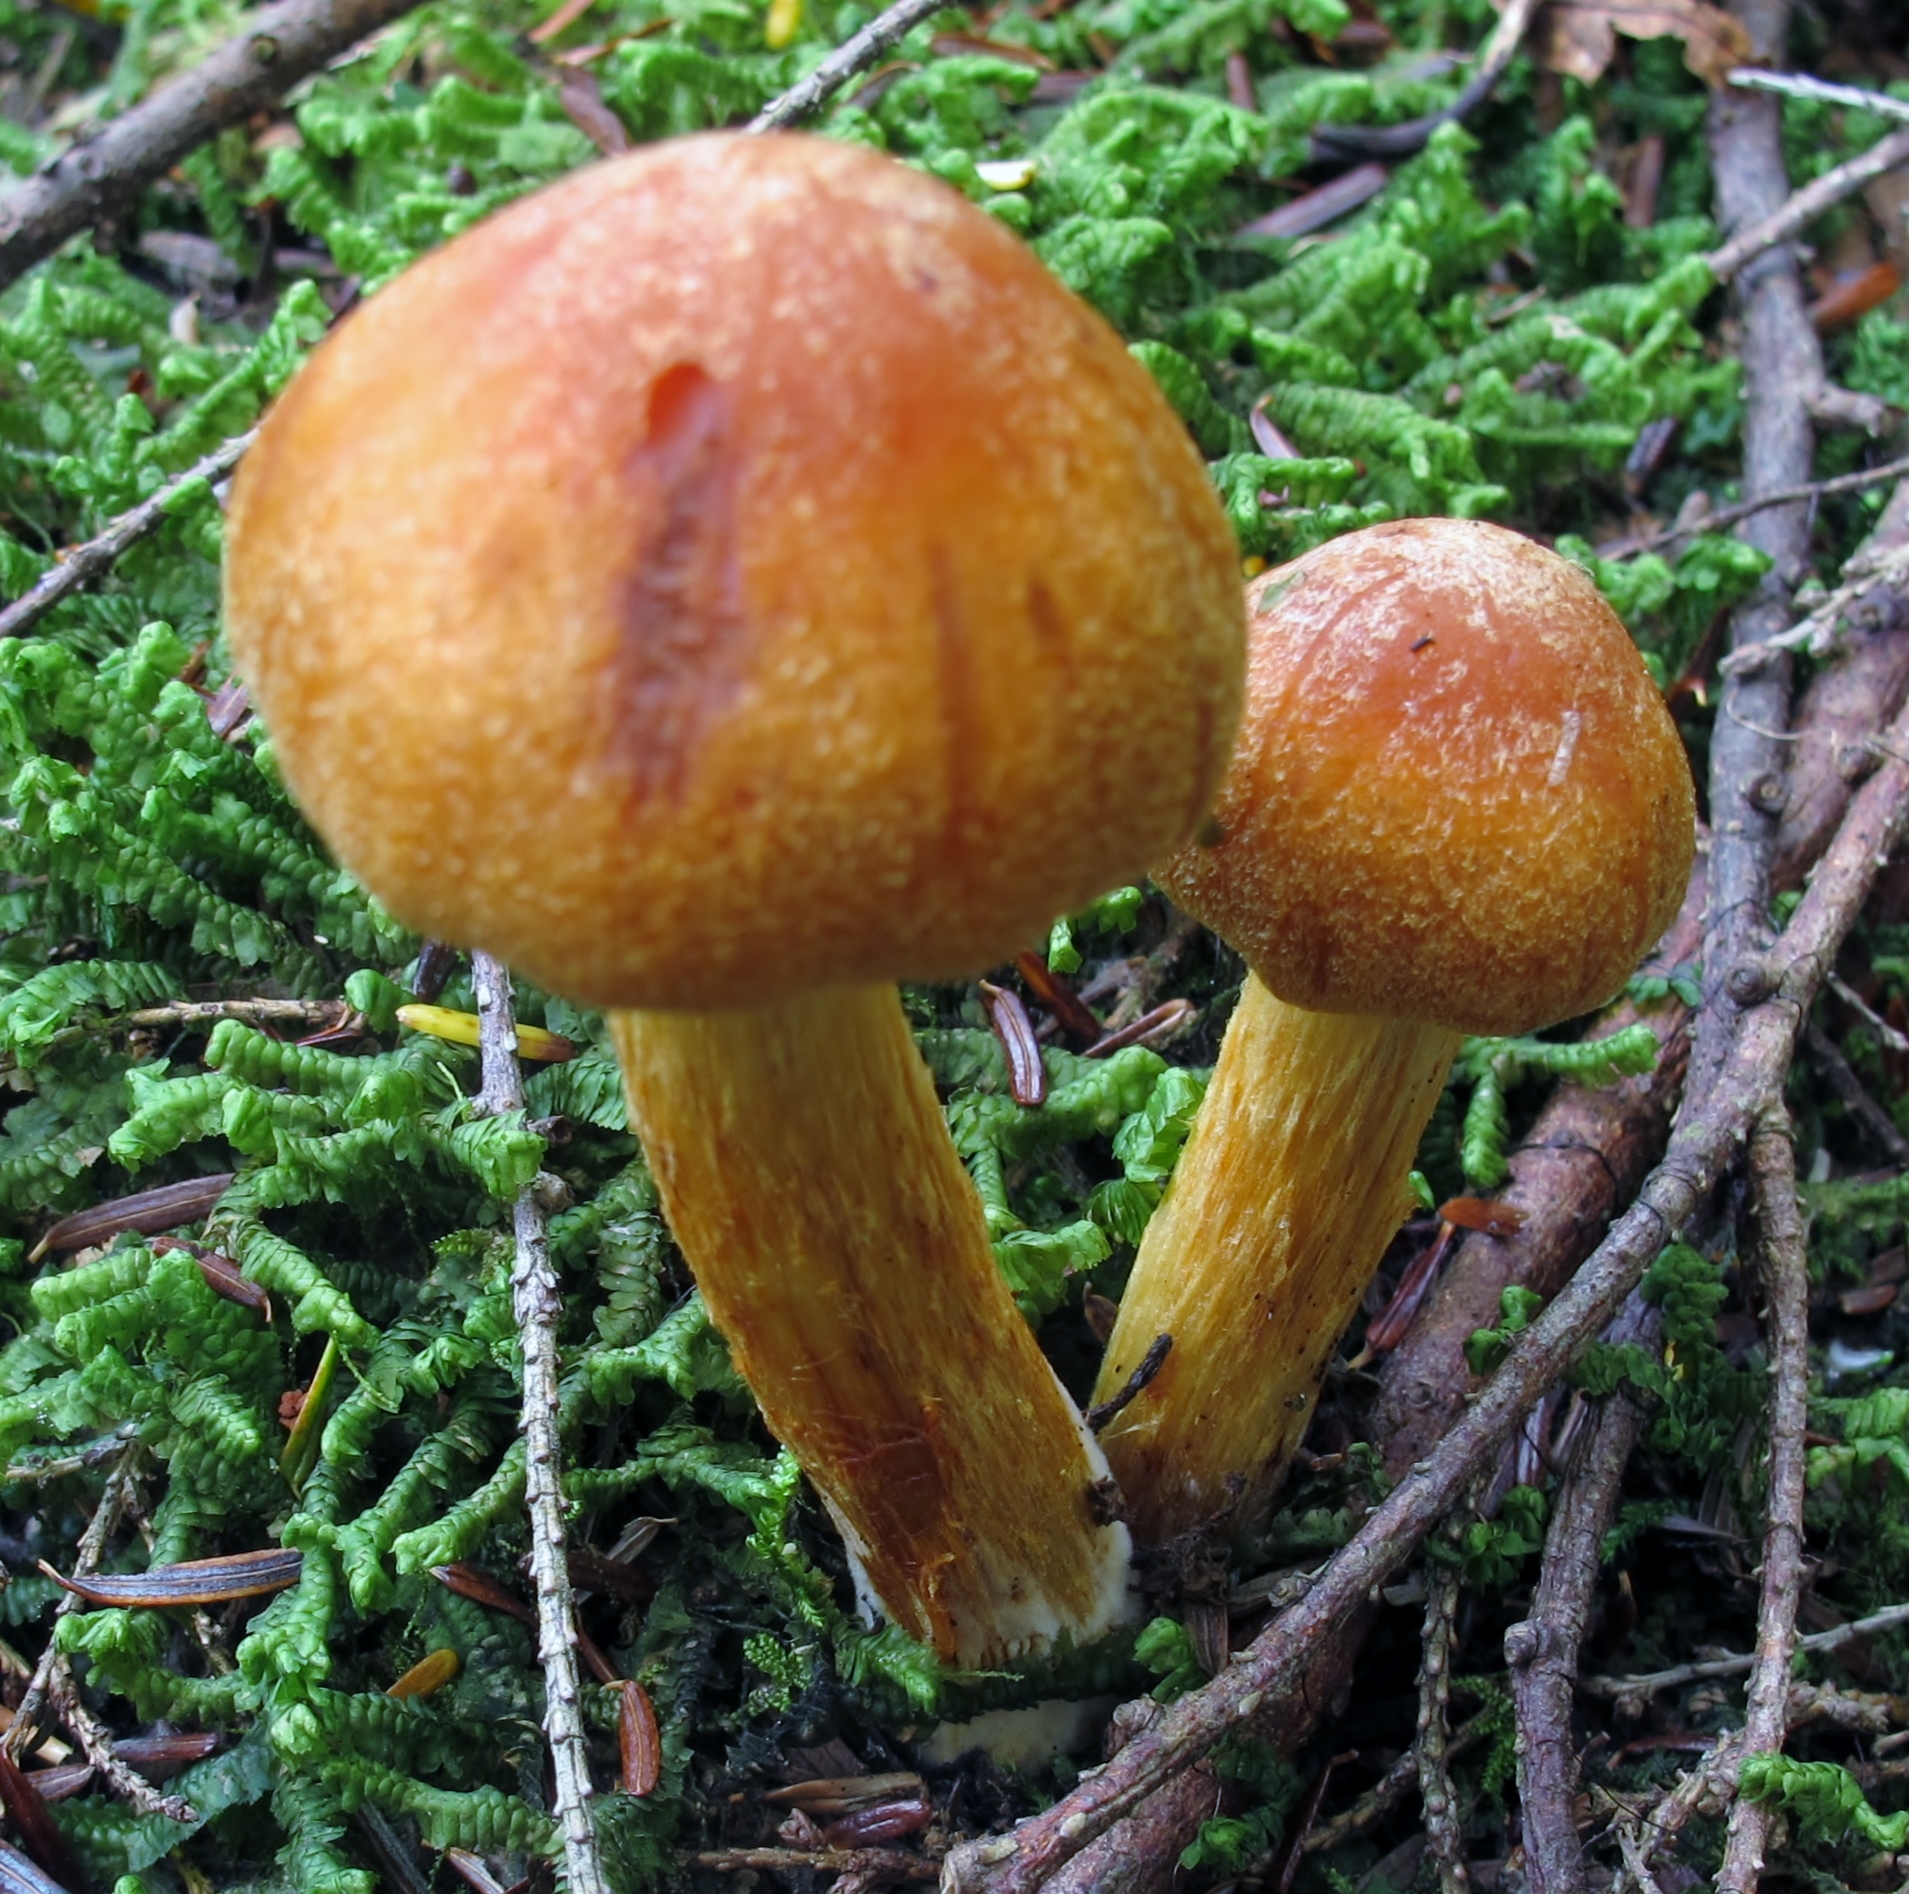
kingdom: Fungi
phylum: Basidiomycota
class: Agaricomycetes
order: Agaricales
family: Cortinariaceae
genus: Aureonarius
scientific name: Aureonarius limonius
